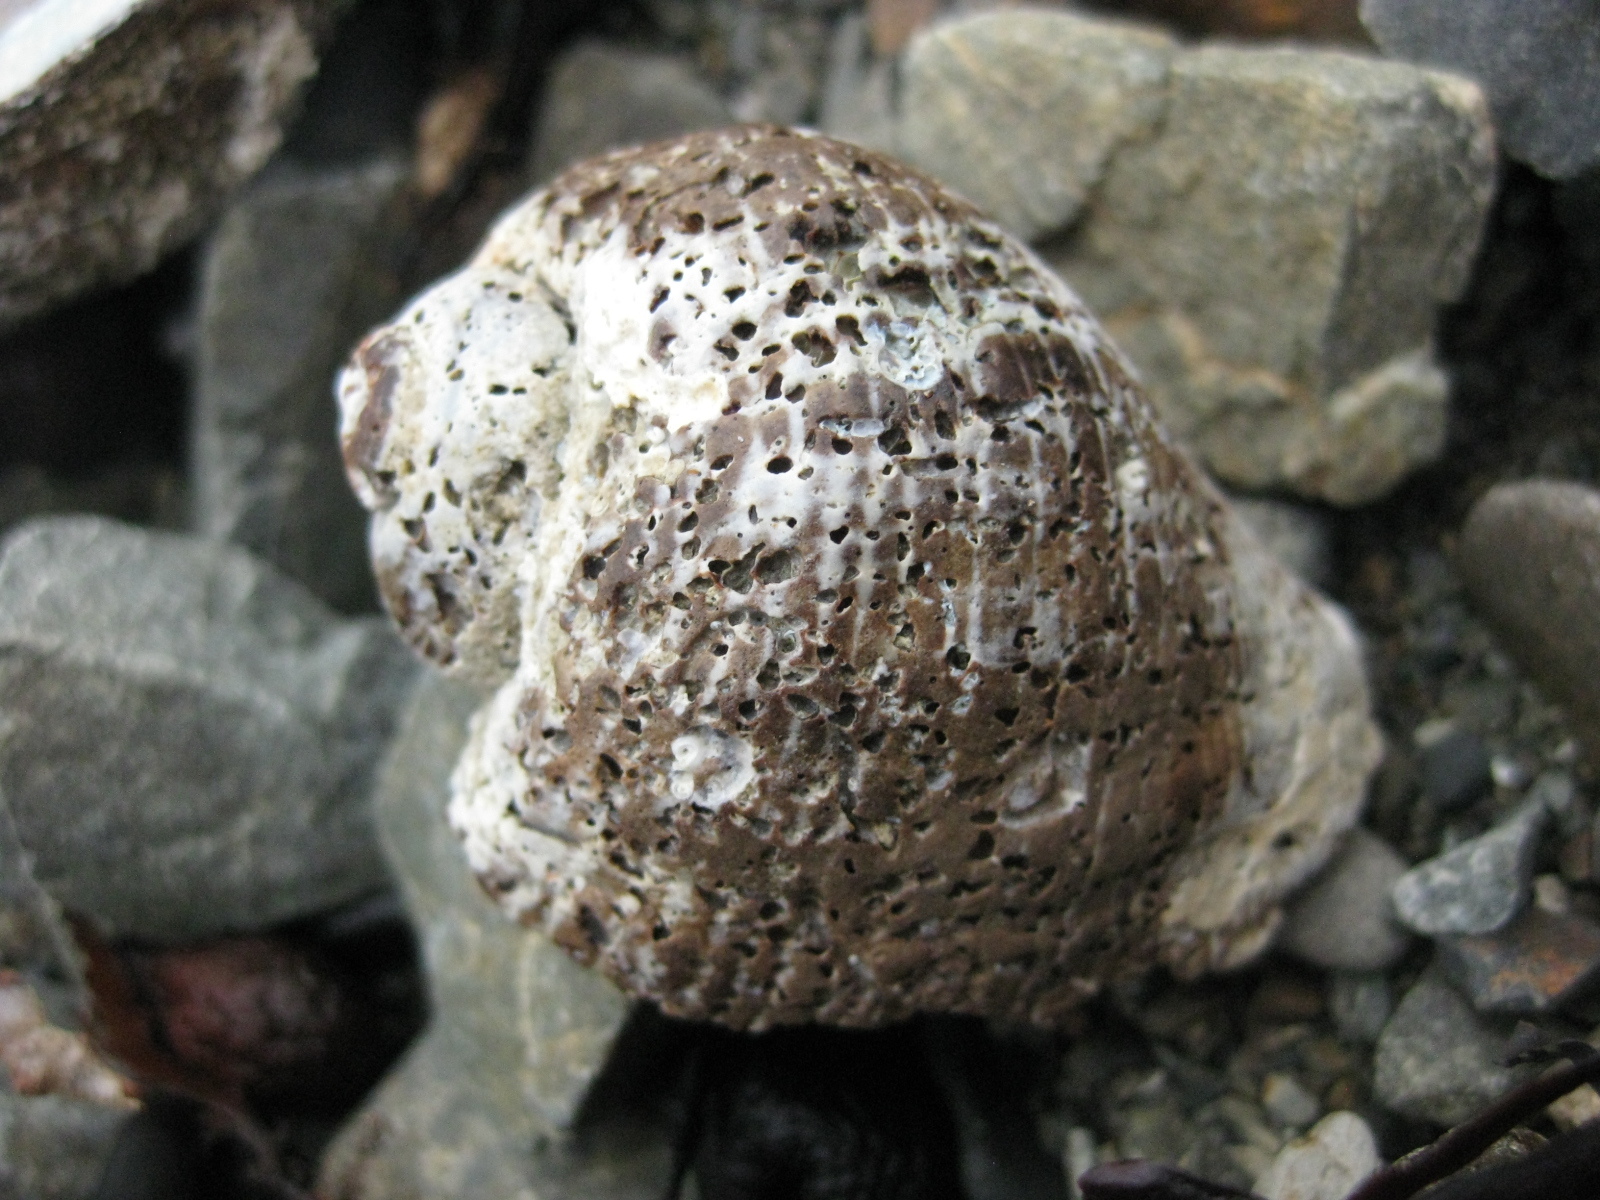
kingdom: Animalia
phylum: Mollusca
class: Gastropoda
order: Neogastropoda
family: Muricidae
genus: Haustrum
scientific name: Haustrum haustorium
